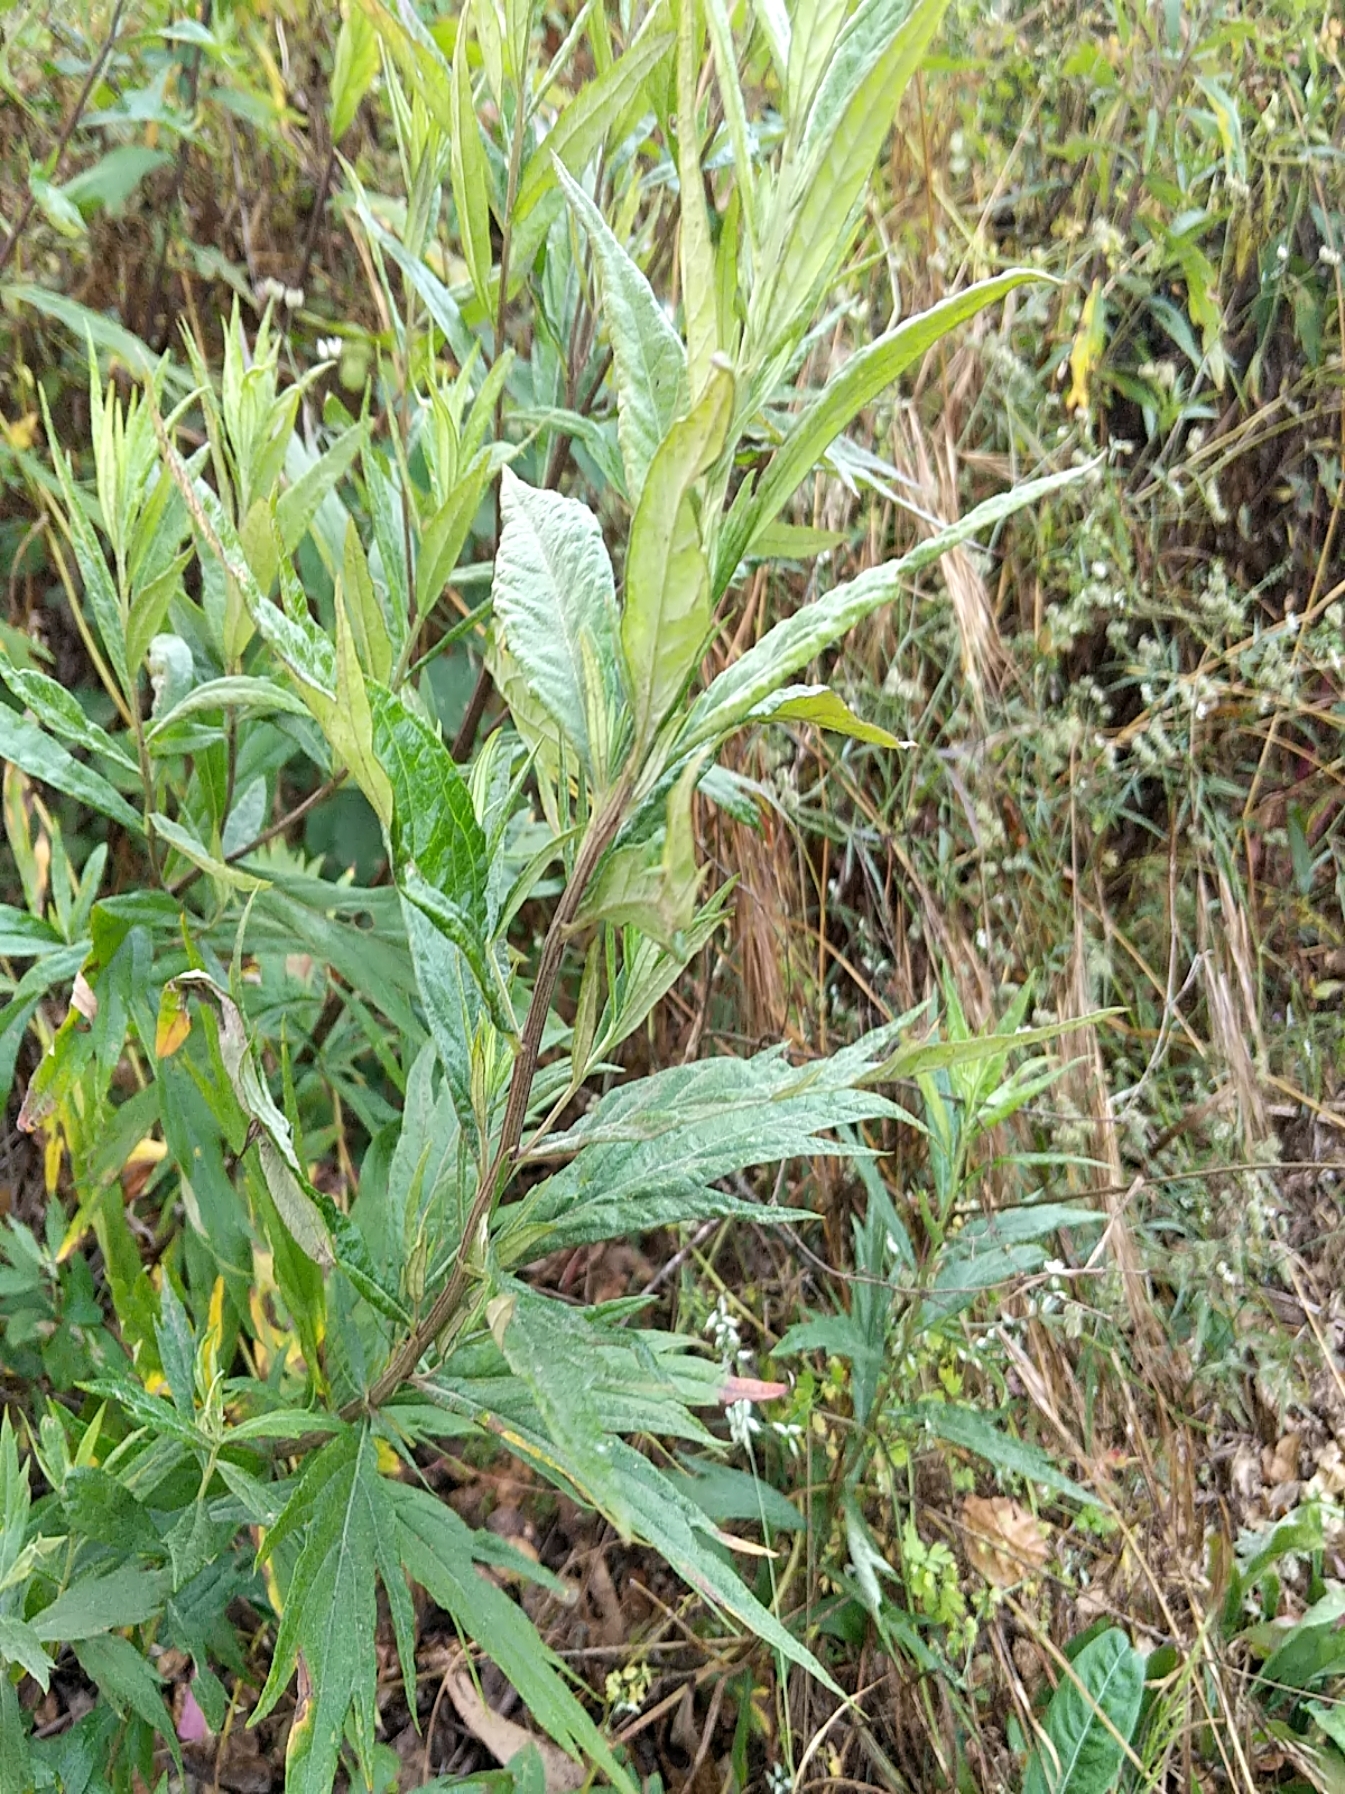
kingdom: Plantae
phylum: Tracheophyta
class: Magnoliopsida
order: Asterales
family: Asteraceae
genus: Artemisia
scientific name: Artemisia douglasiana
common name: Northwest mugwort
